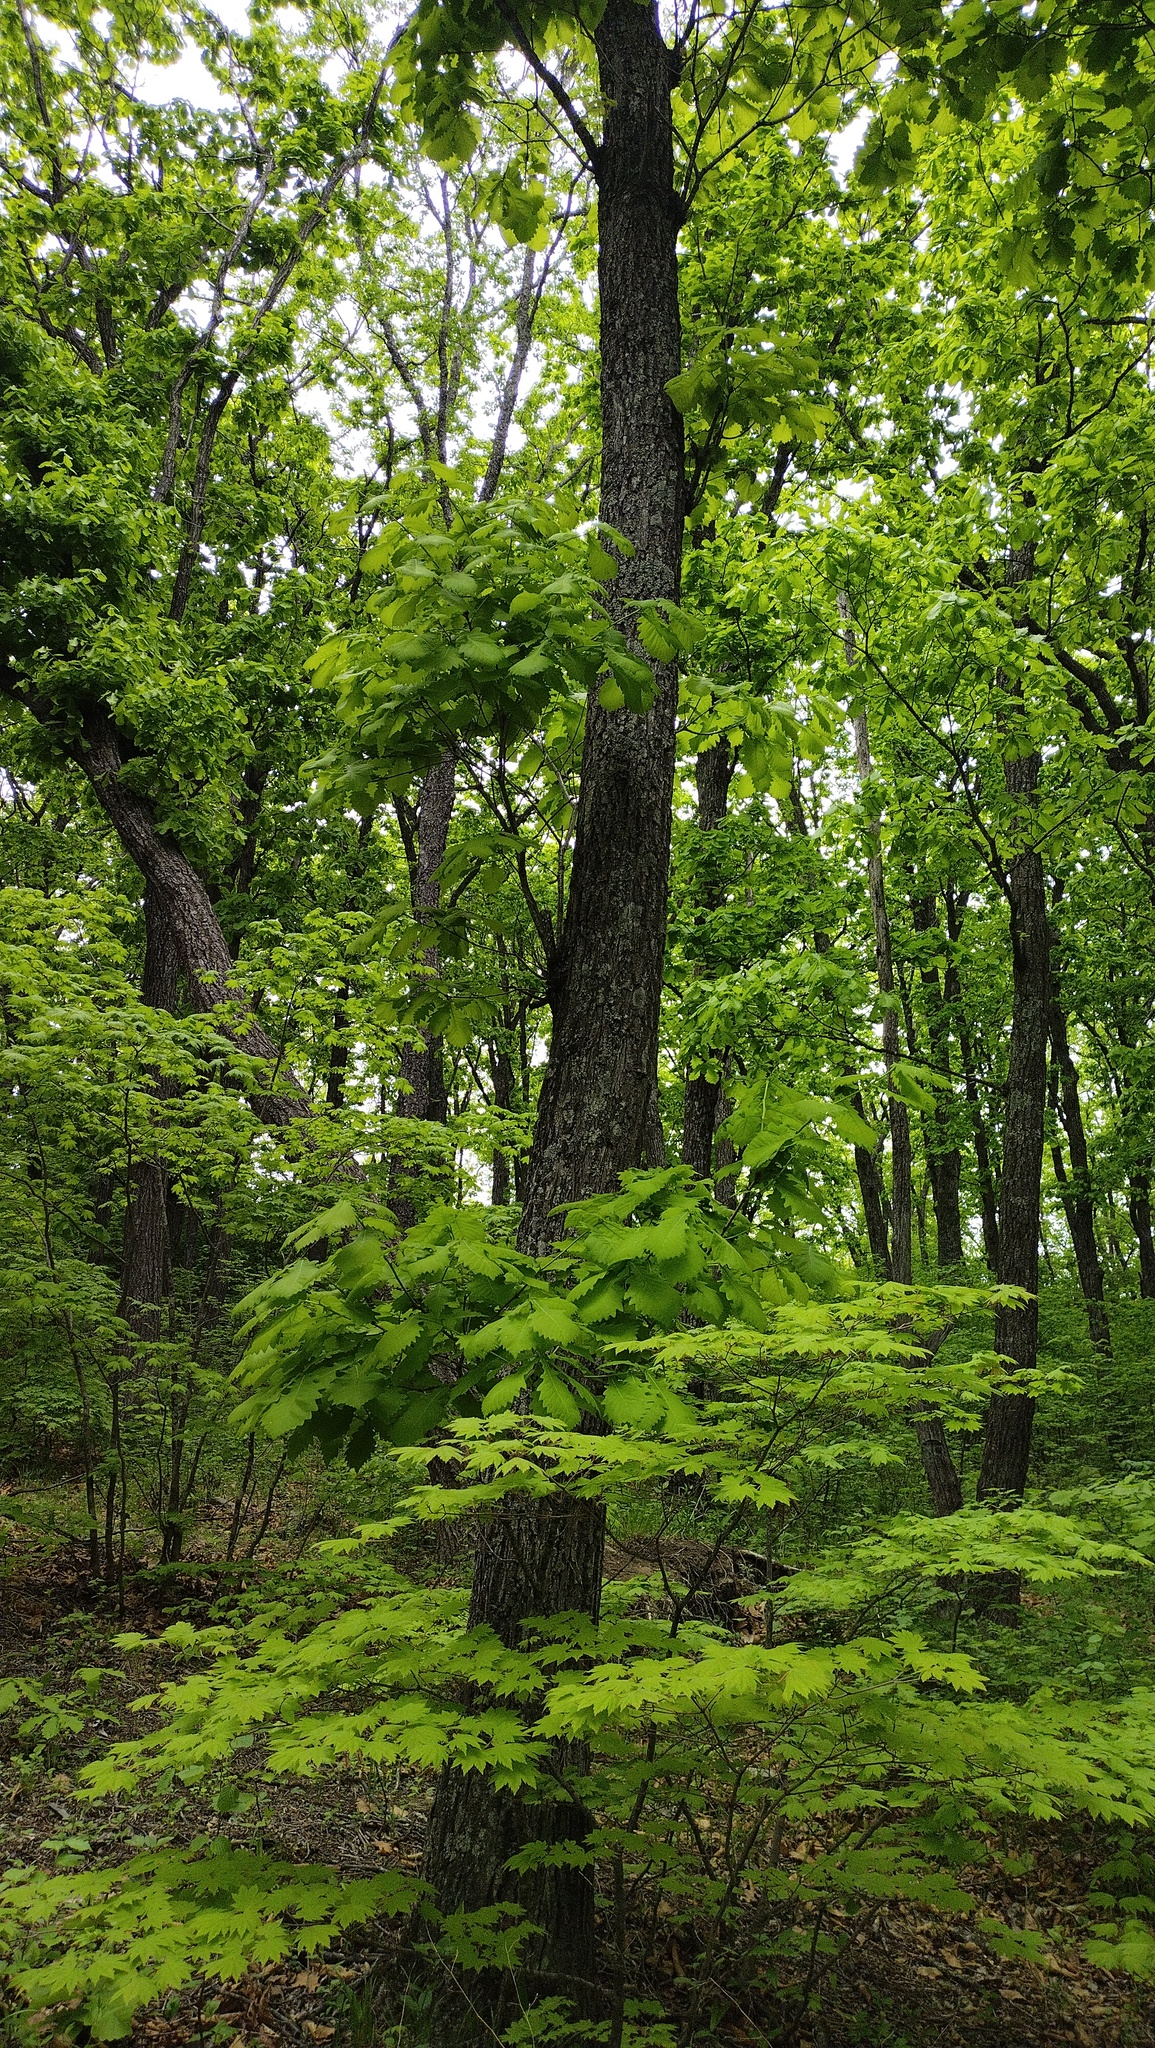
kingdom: Plantae
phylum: Tracheophyta
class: Magnoliopsida
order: Sapindales
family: Sapindaceae
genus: Acer
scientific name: Acer pseudosieboldianum
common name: Korean maple
